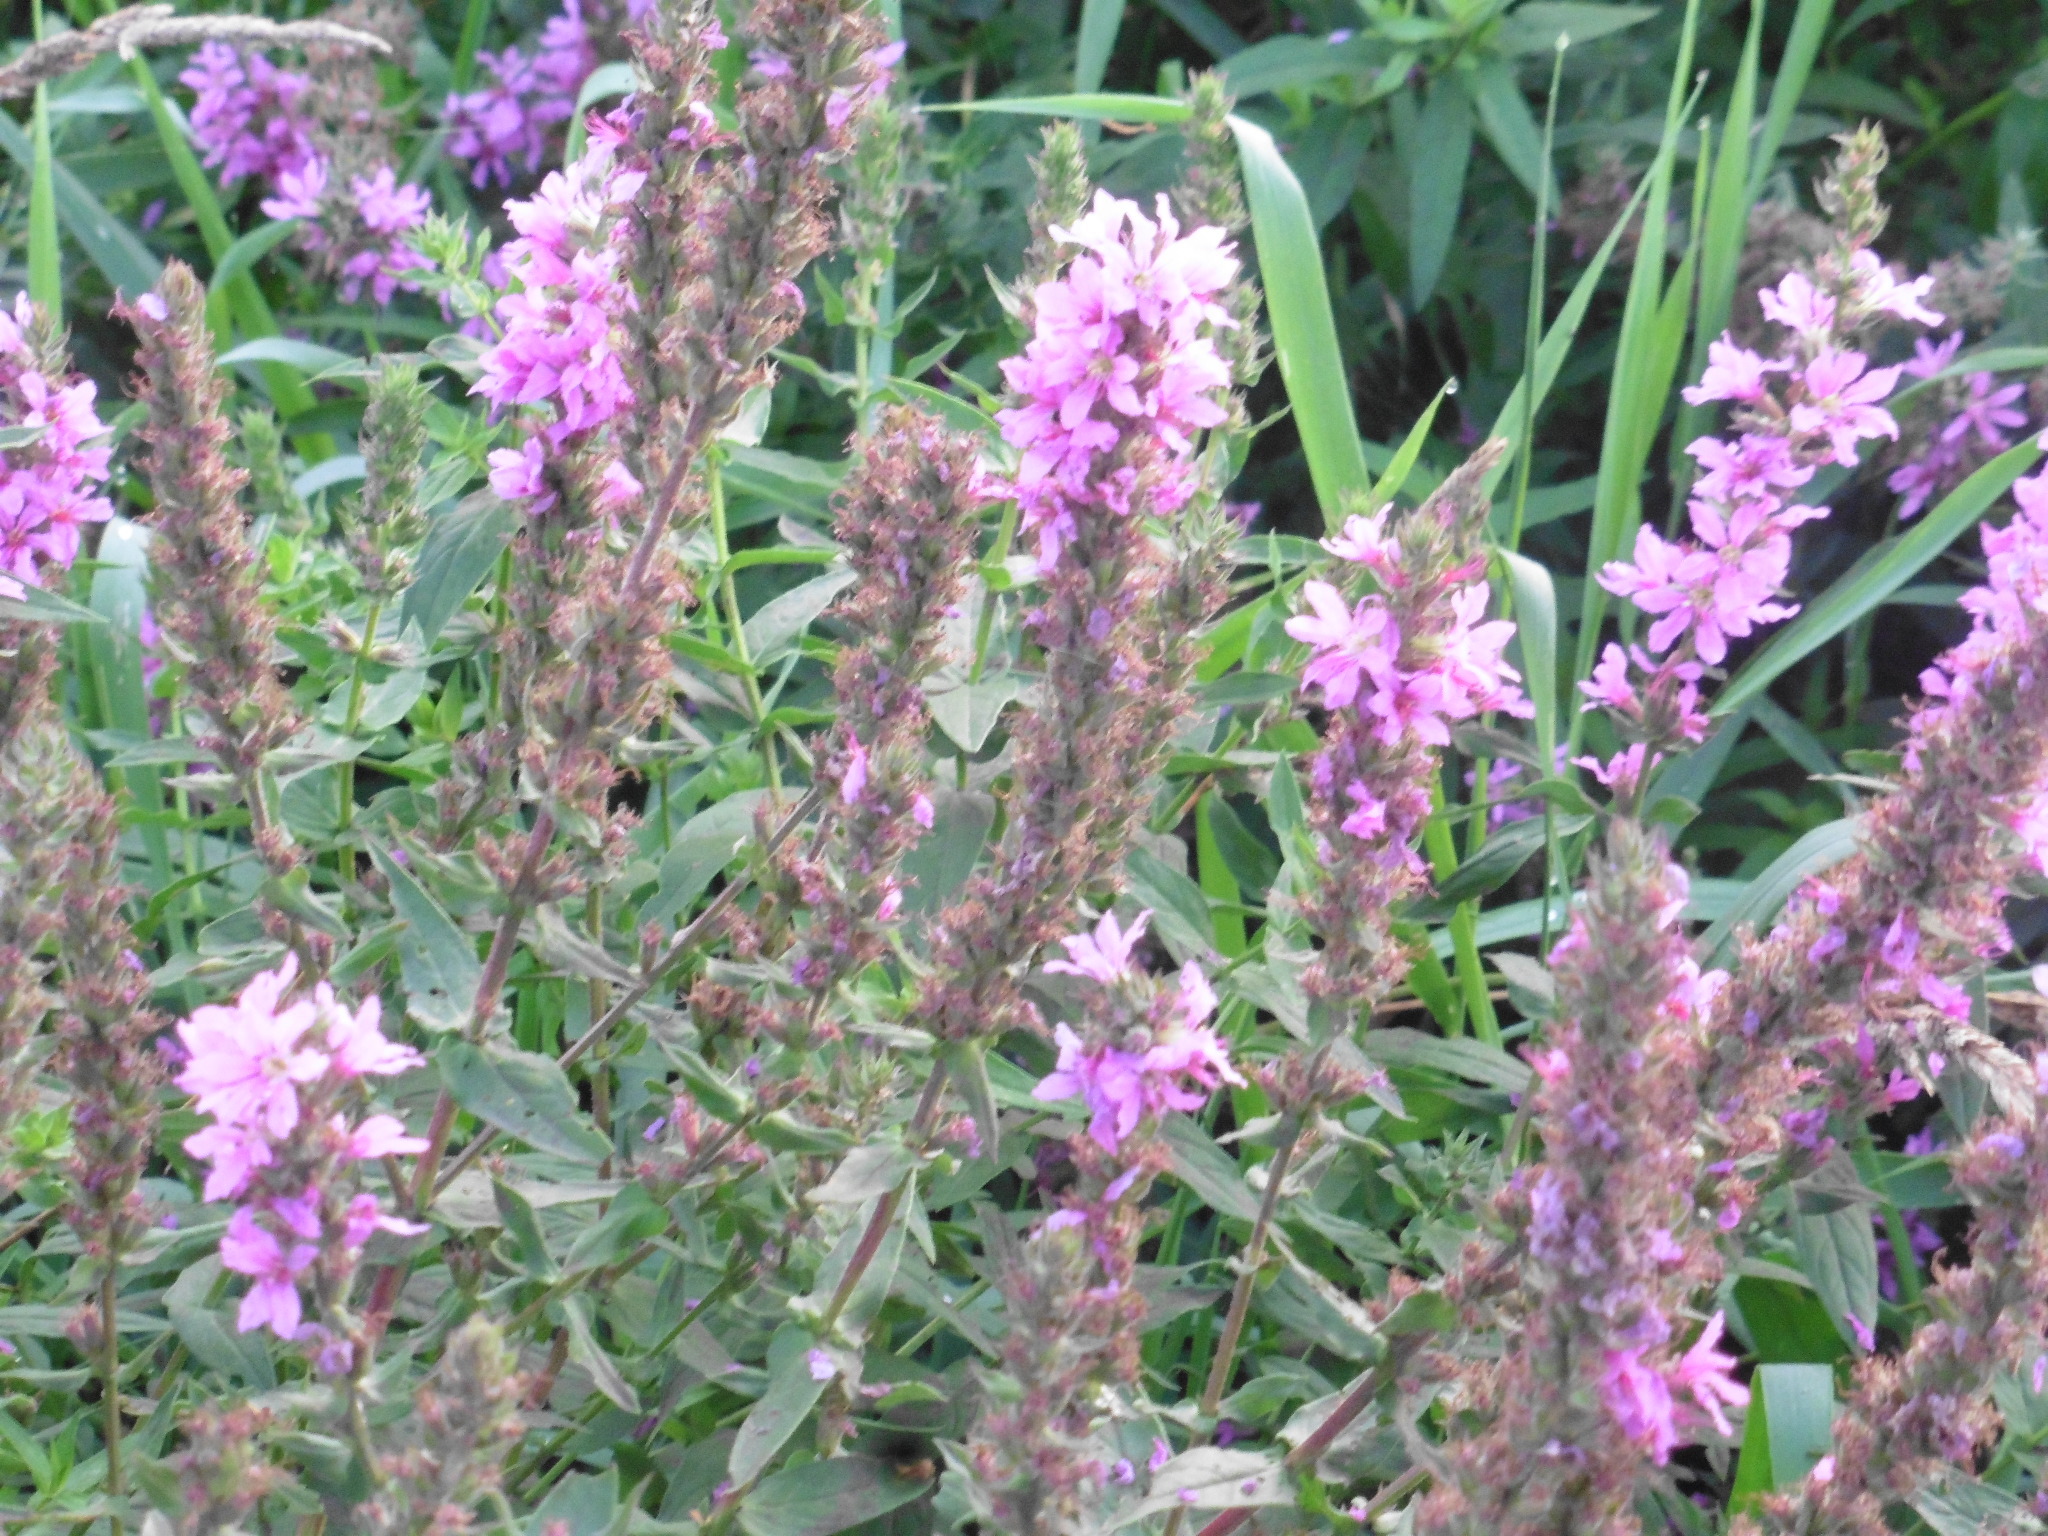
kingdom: Plantae
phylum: Tracheophyta
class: Magnoliopsida
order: Myrtales
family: Lythraceae
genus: Lythrum
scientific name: Lythrum salicaria
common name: Purple loosestrife
